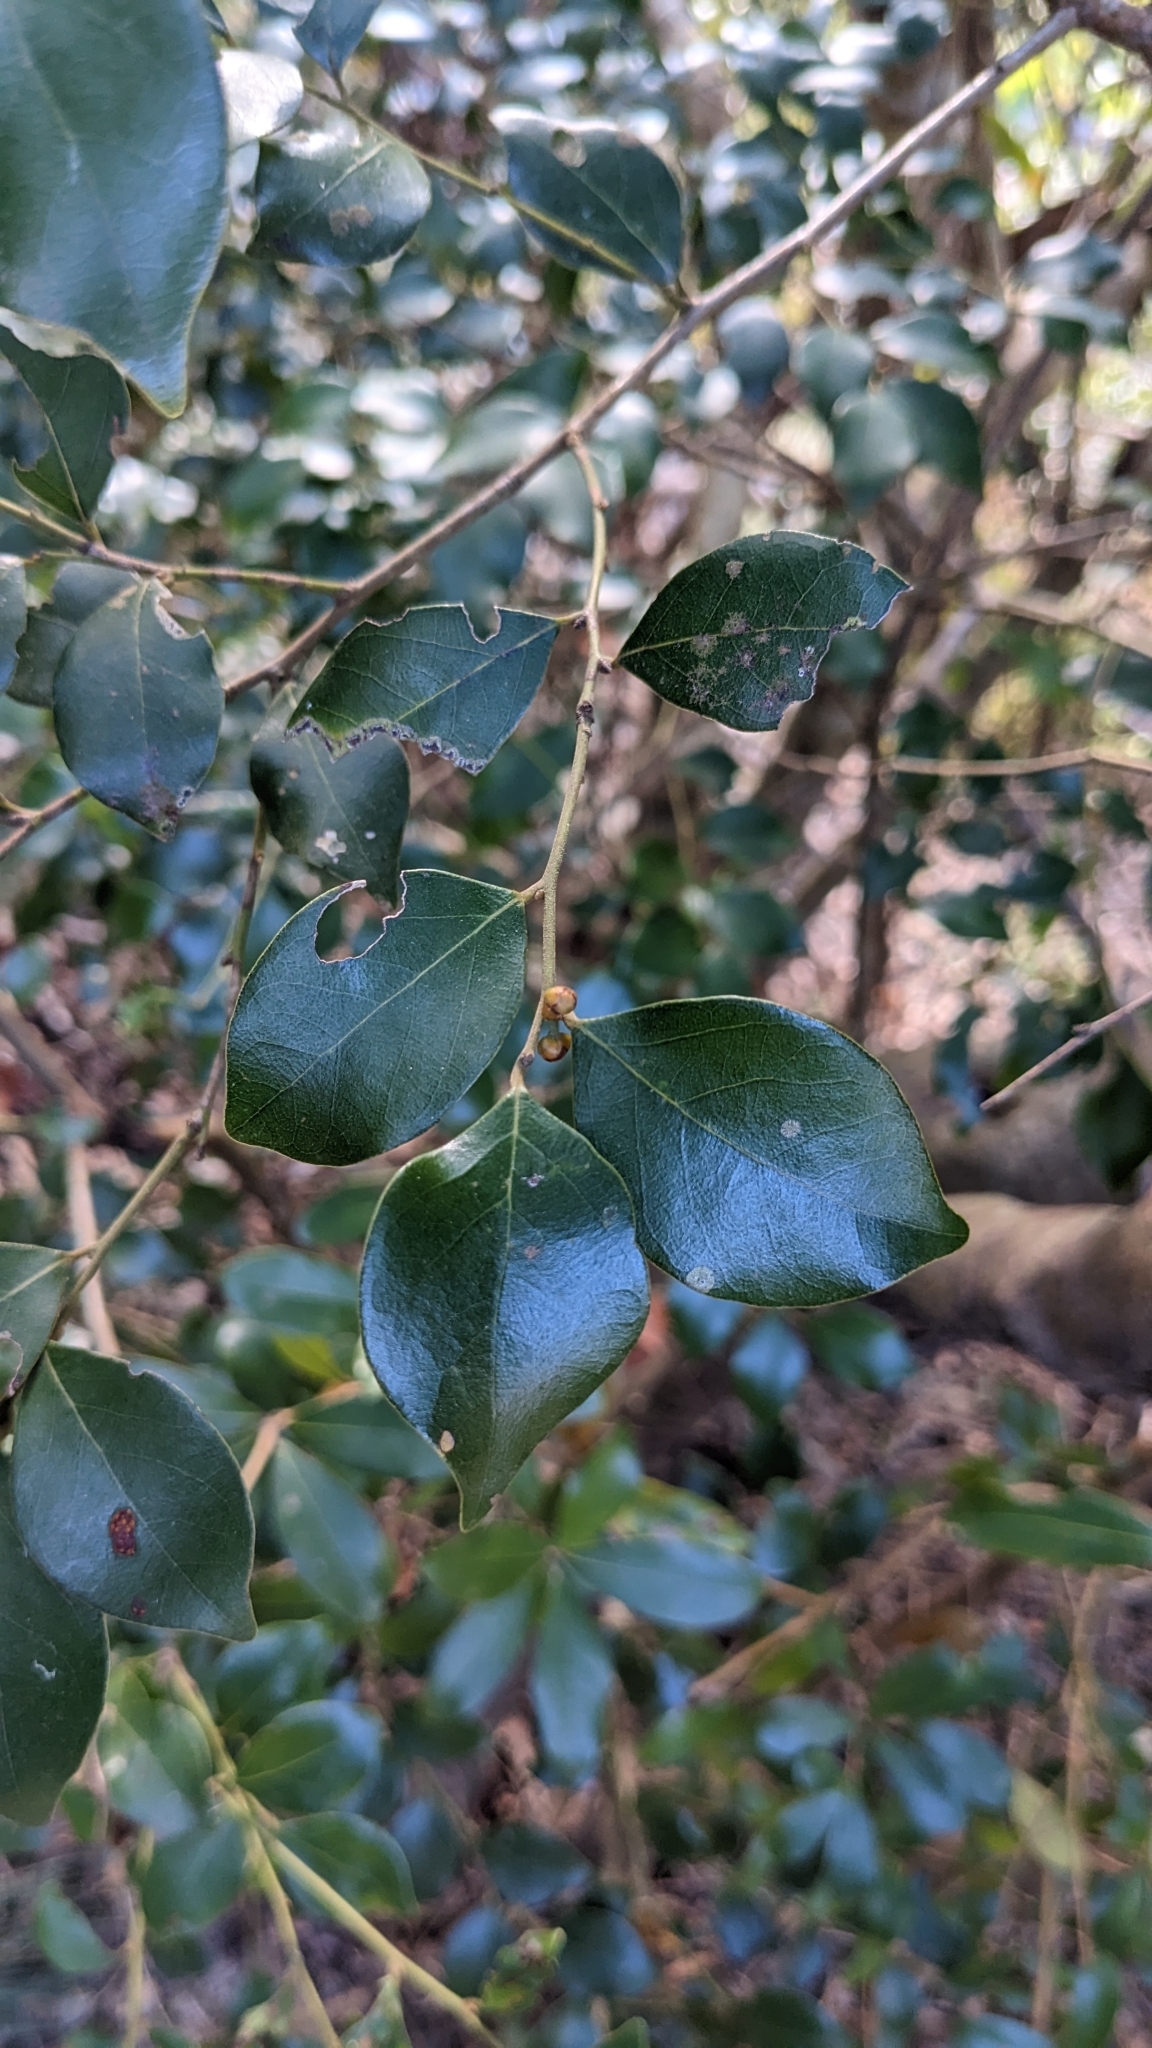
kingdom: Plantae
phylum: Tracheophyta
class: Magnoliopsida
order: Laurales
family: Lauraceae
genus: Lindera
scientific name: Lindera akoensis
